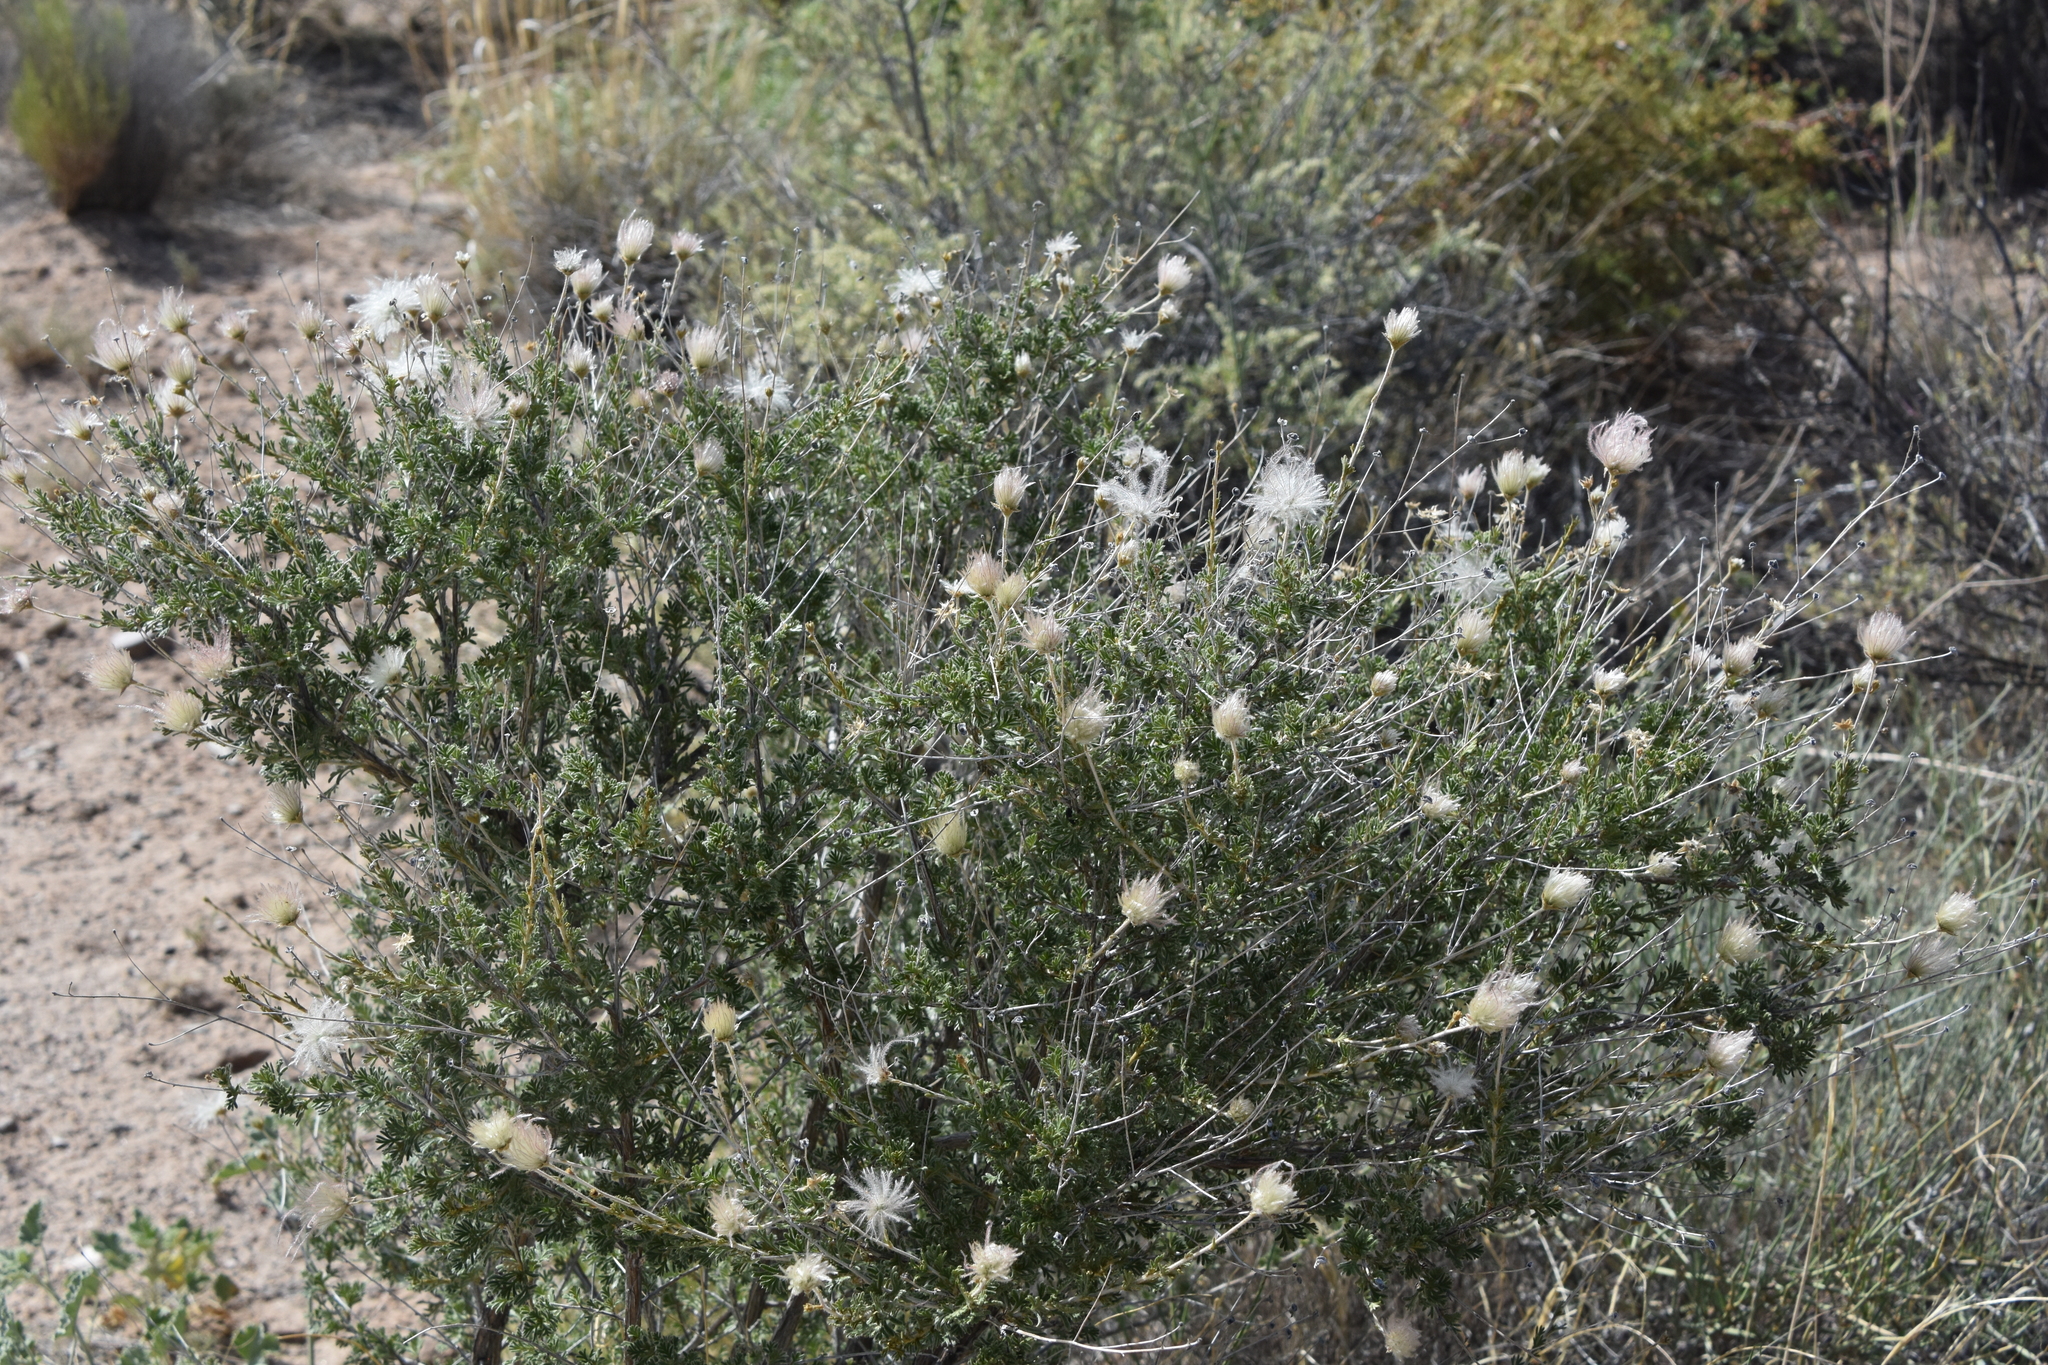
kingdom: Plantae
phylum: Tracheophyta
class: Magnoliopsida
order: Rosales
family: Rosaceae
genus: Fallugia
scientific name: Fallugia paradoxa
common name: Apache-plume
